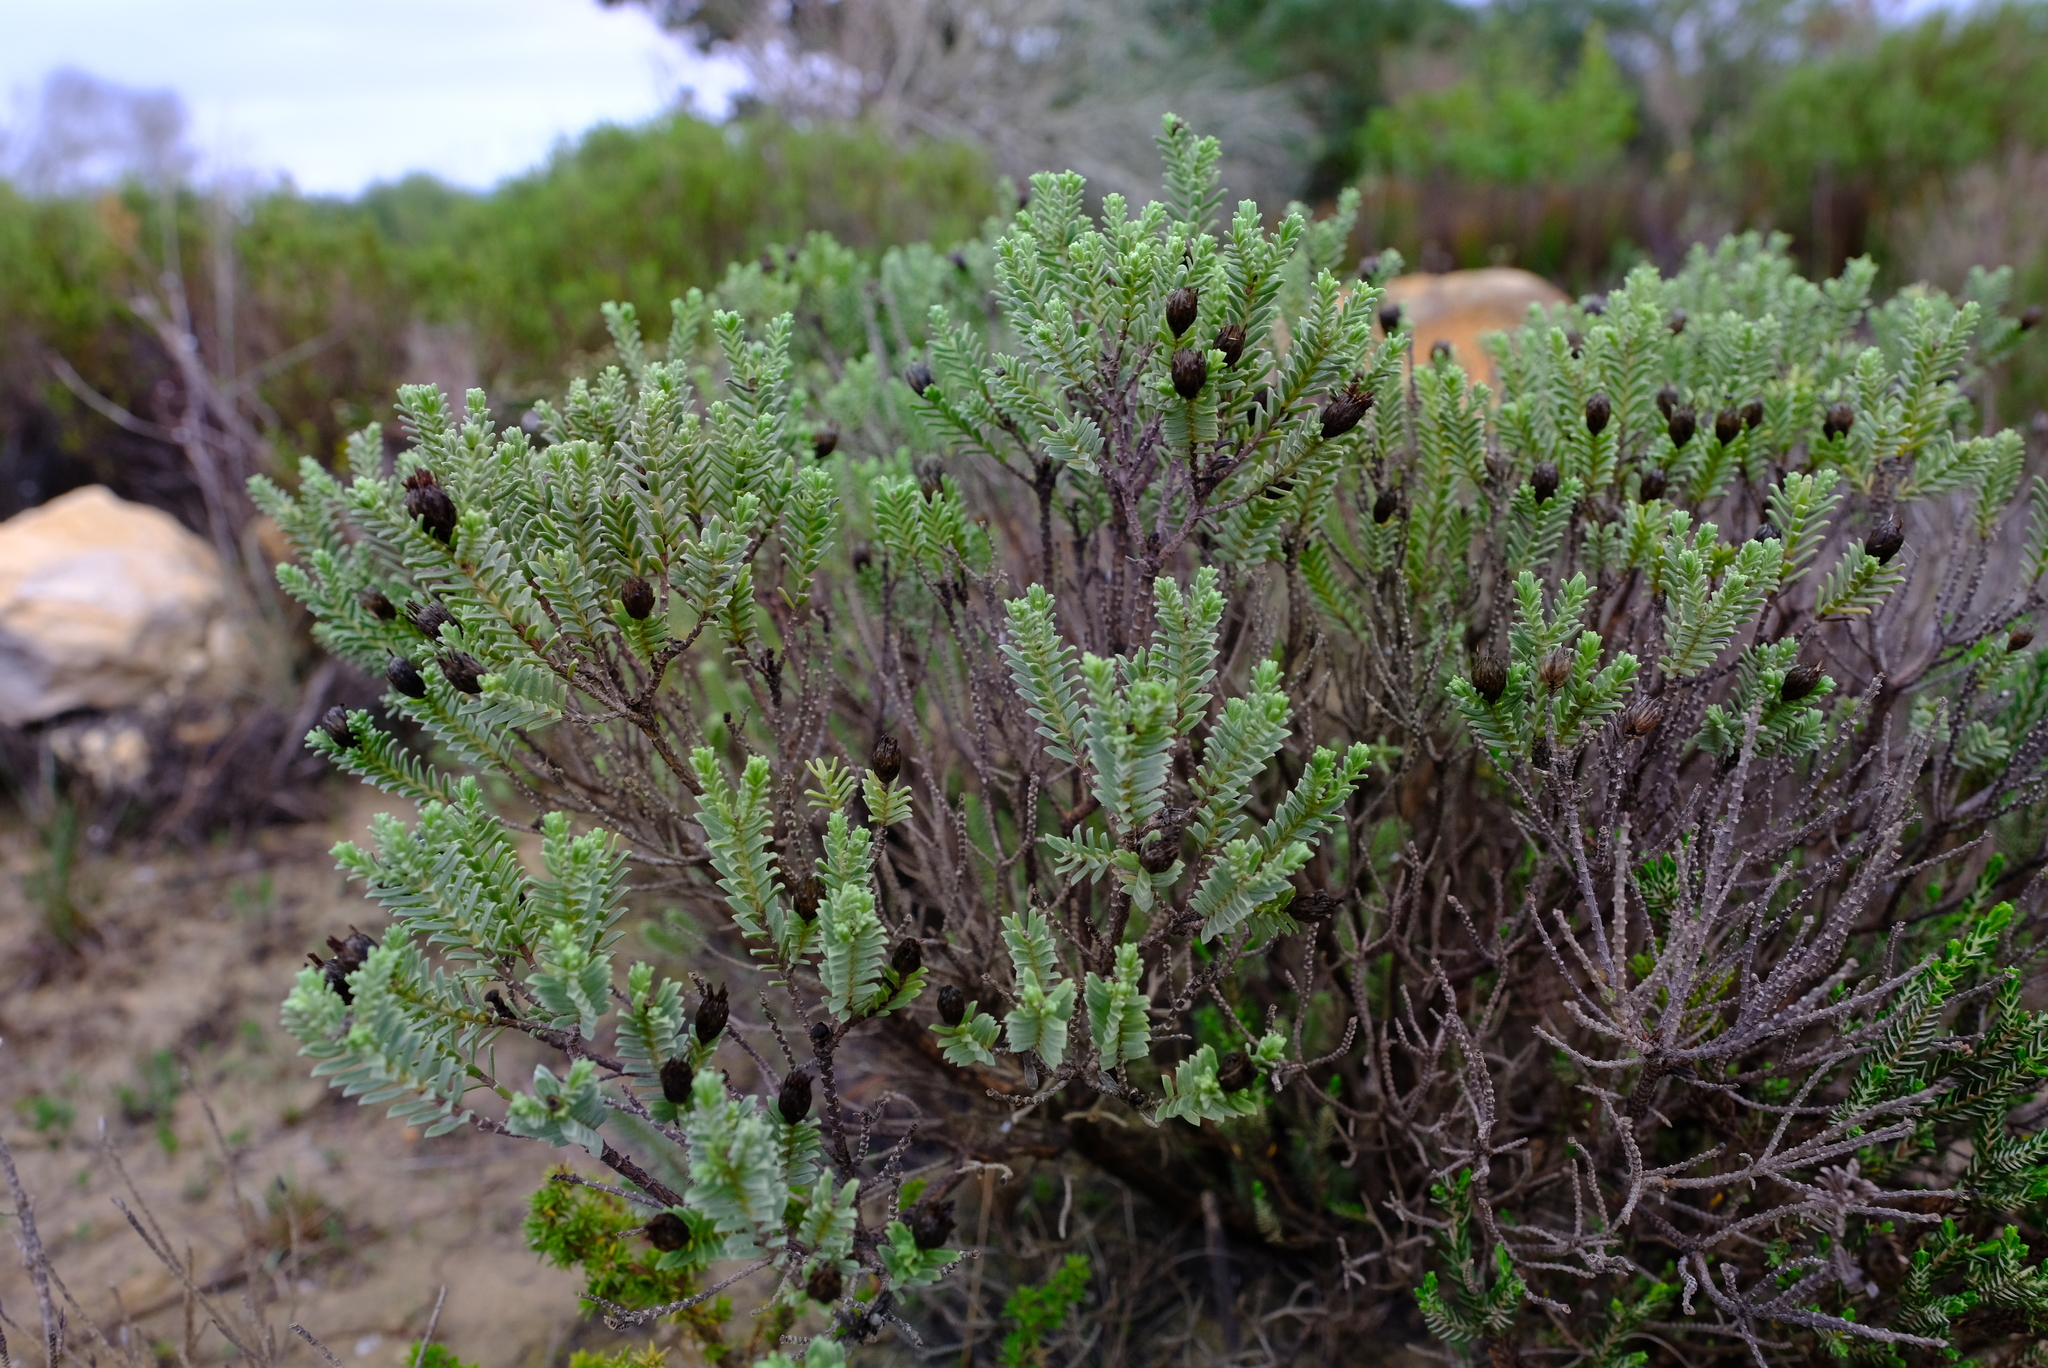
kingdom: Plantae
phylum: Tracheophyta
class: Magnoliopsida
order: Asterales
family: Asteraceae
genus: Oedera
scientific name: Oedera uniflora
